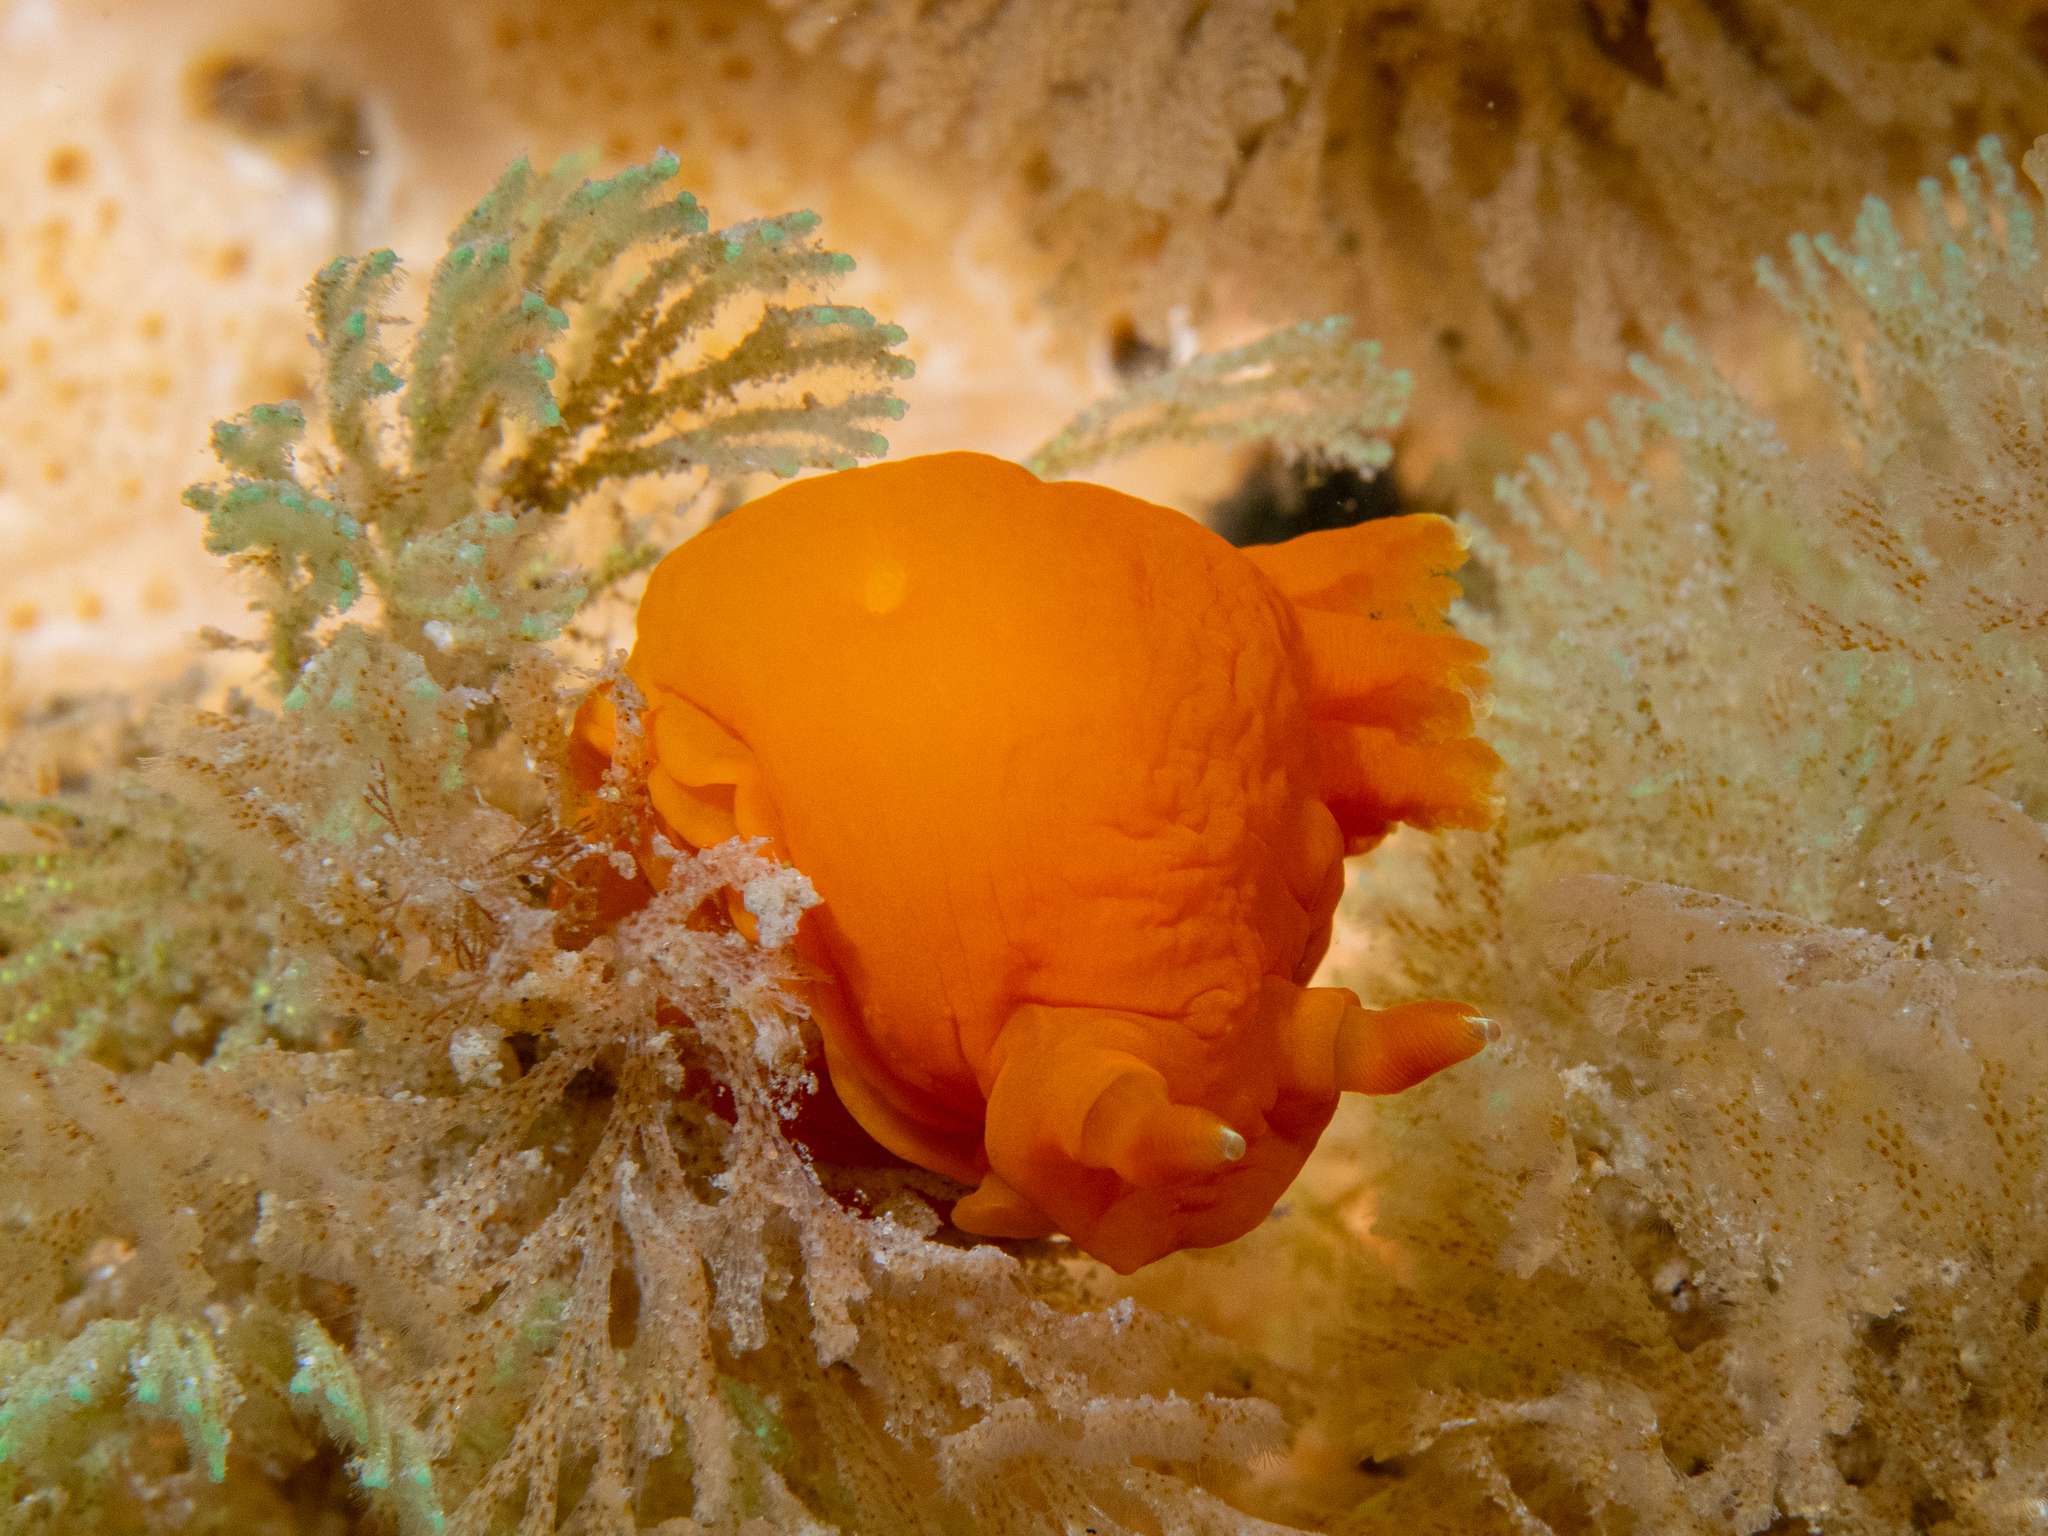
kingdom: Animalia
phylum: Mollusca
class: Gastropoda
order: Nudibranchia
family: Polyceridae
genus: Tambja
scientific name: Tambja
